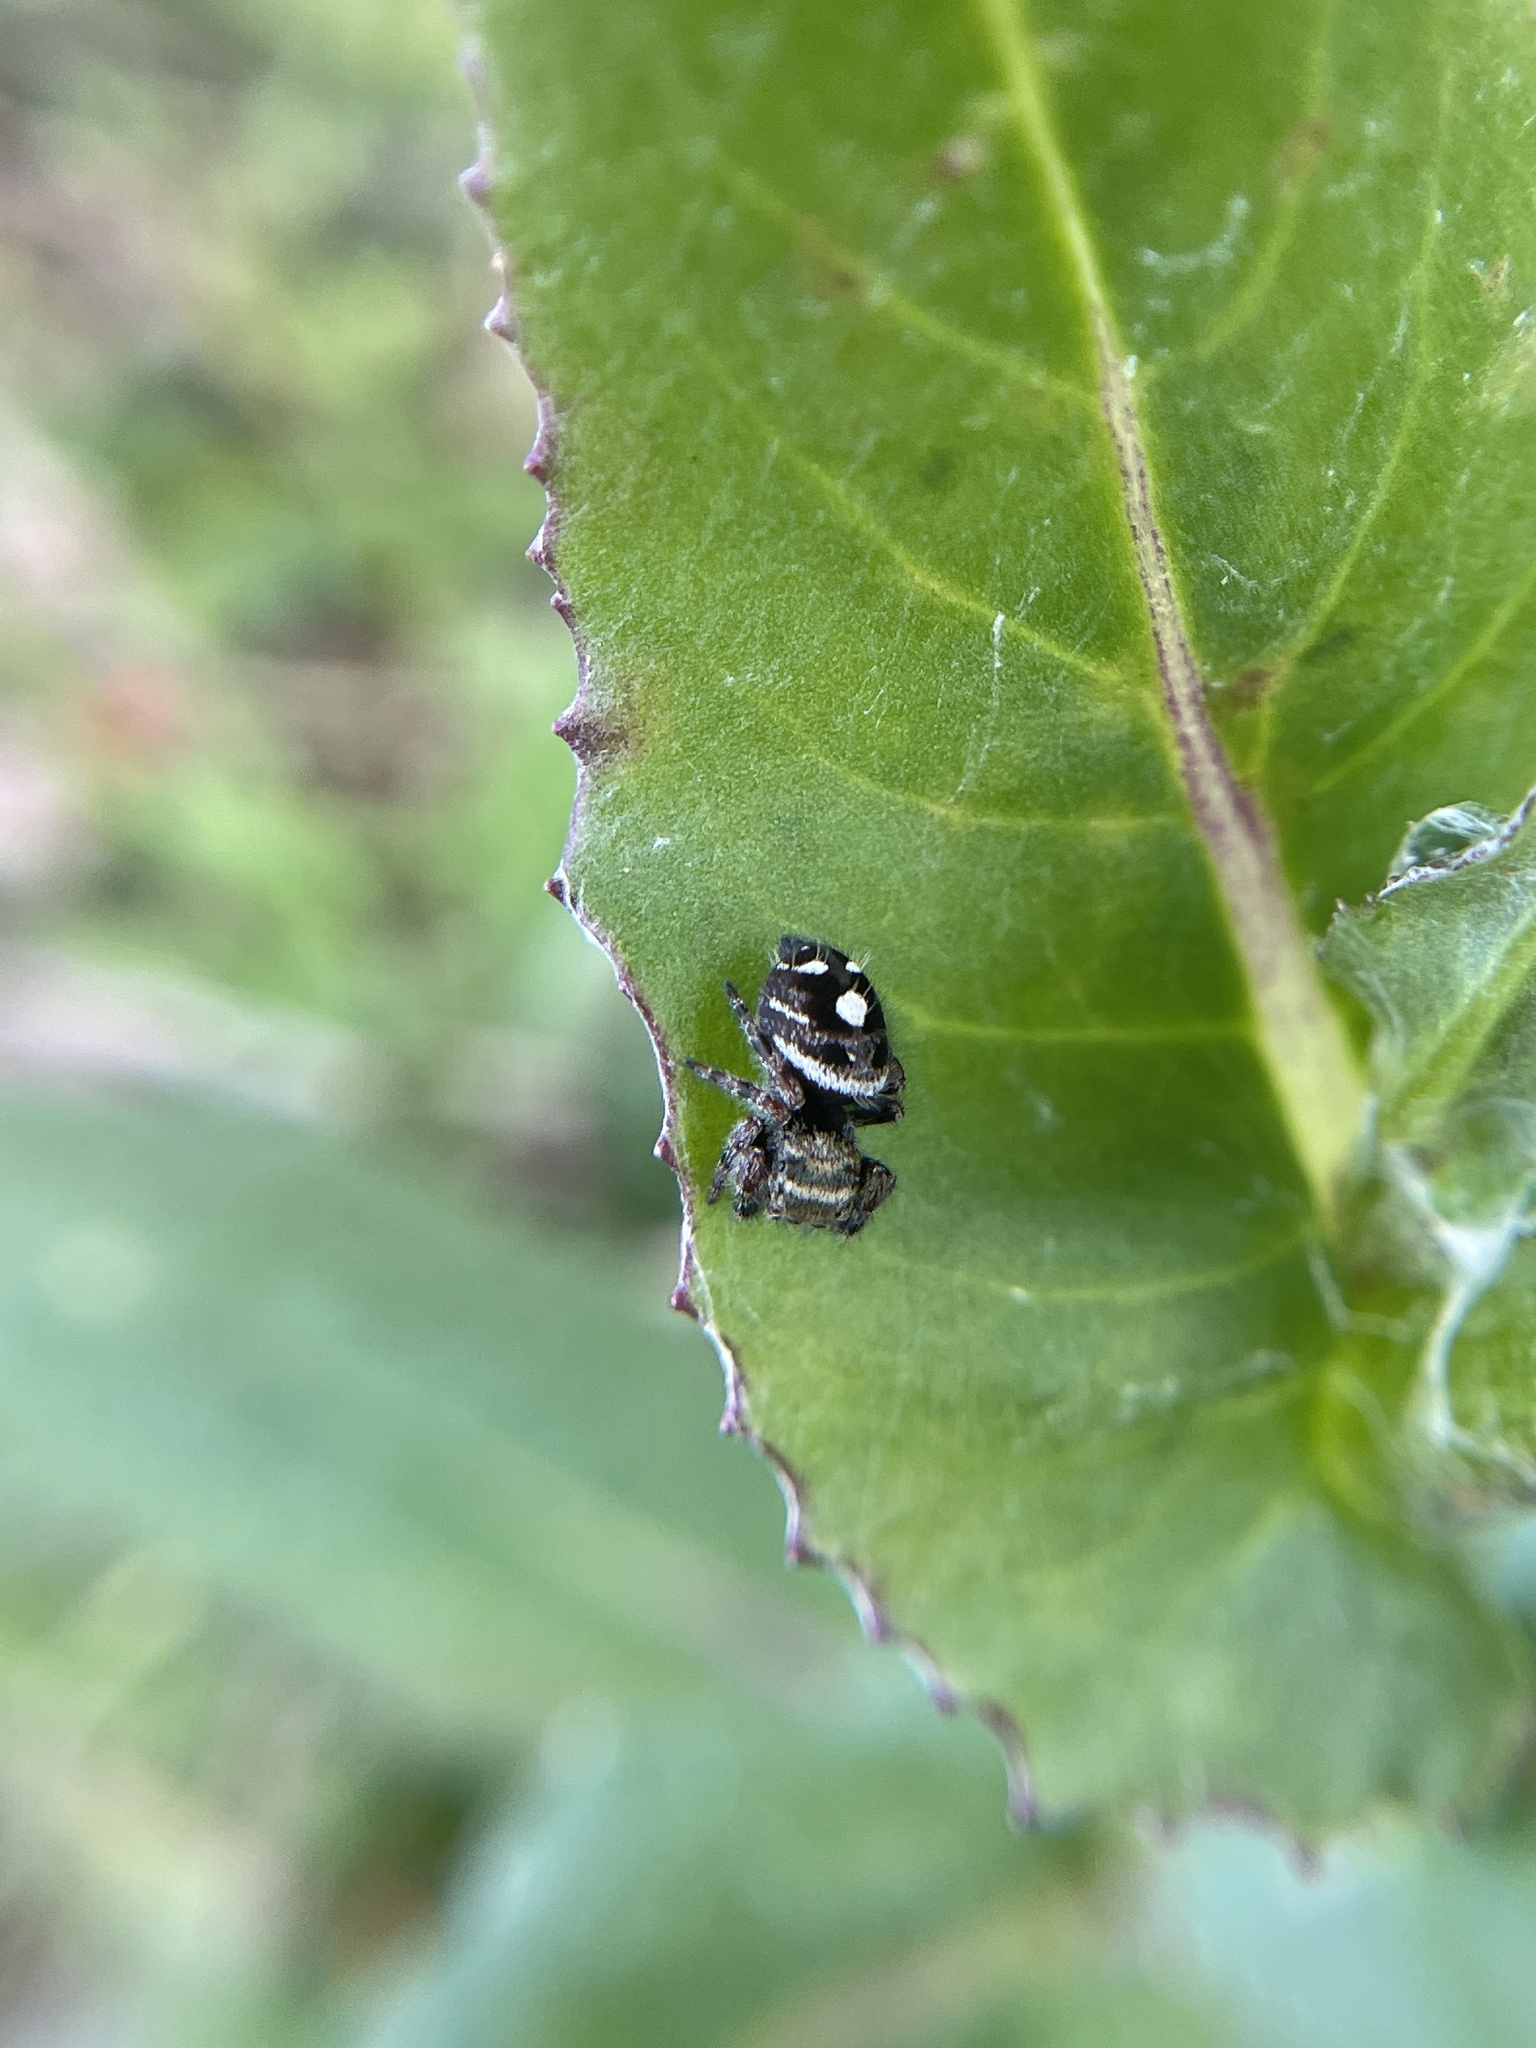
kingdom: Animalia
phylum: Arthropoda
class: Arachnida
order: Araneae
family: Salticidae
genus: Phidippus
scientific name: Phidippus audax
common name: Bold jumper
